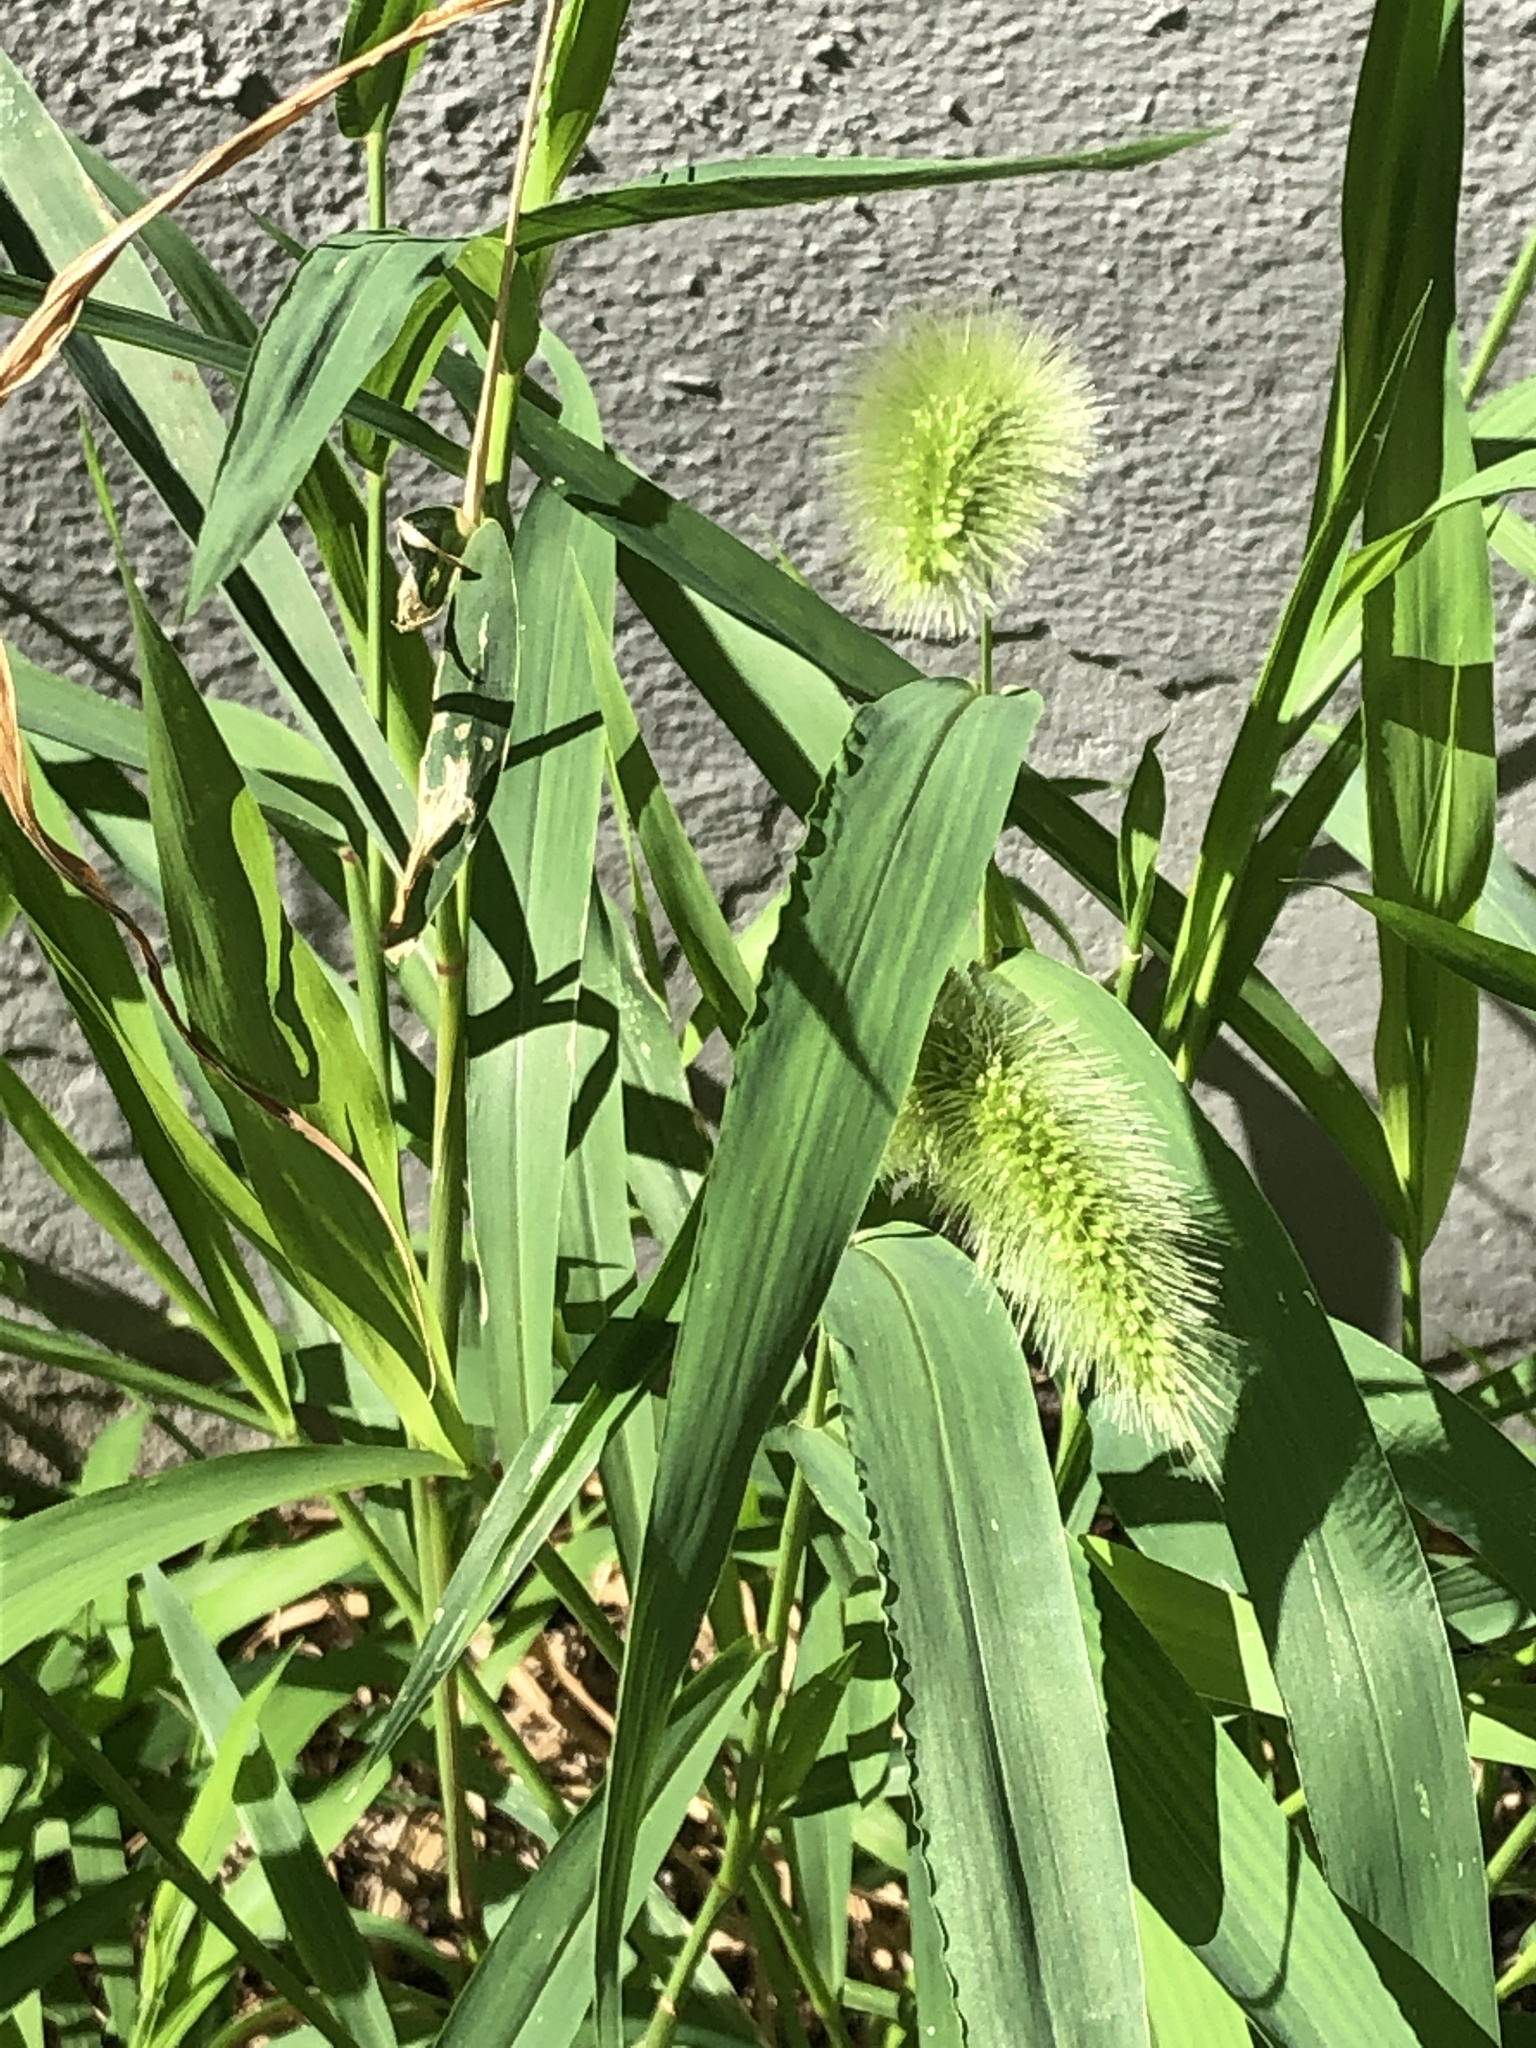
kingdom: Plantae
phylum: Tracheophyta
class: Liliopsida
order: Poales
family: Poaceae
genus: Setaria
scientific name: Setaria viridis
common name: Green bristlegrass
